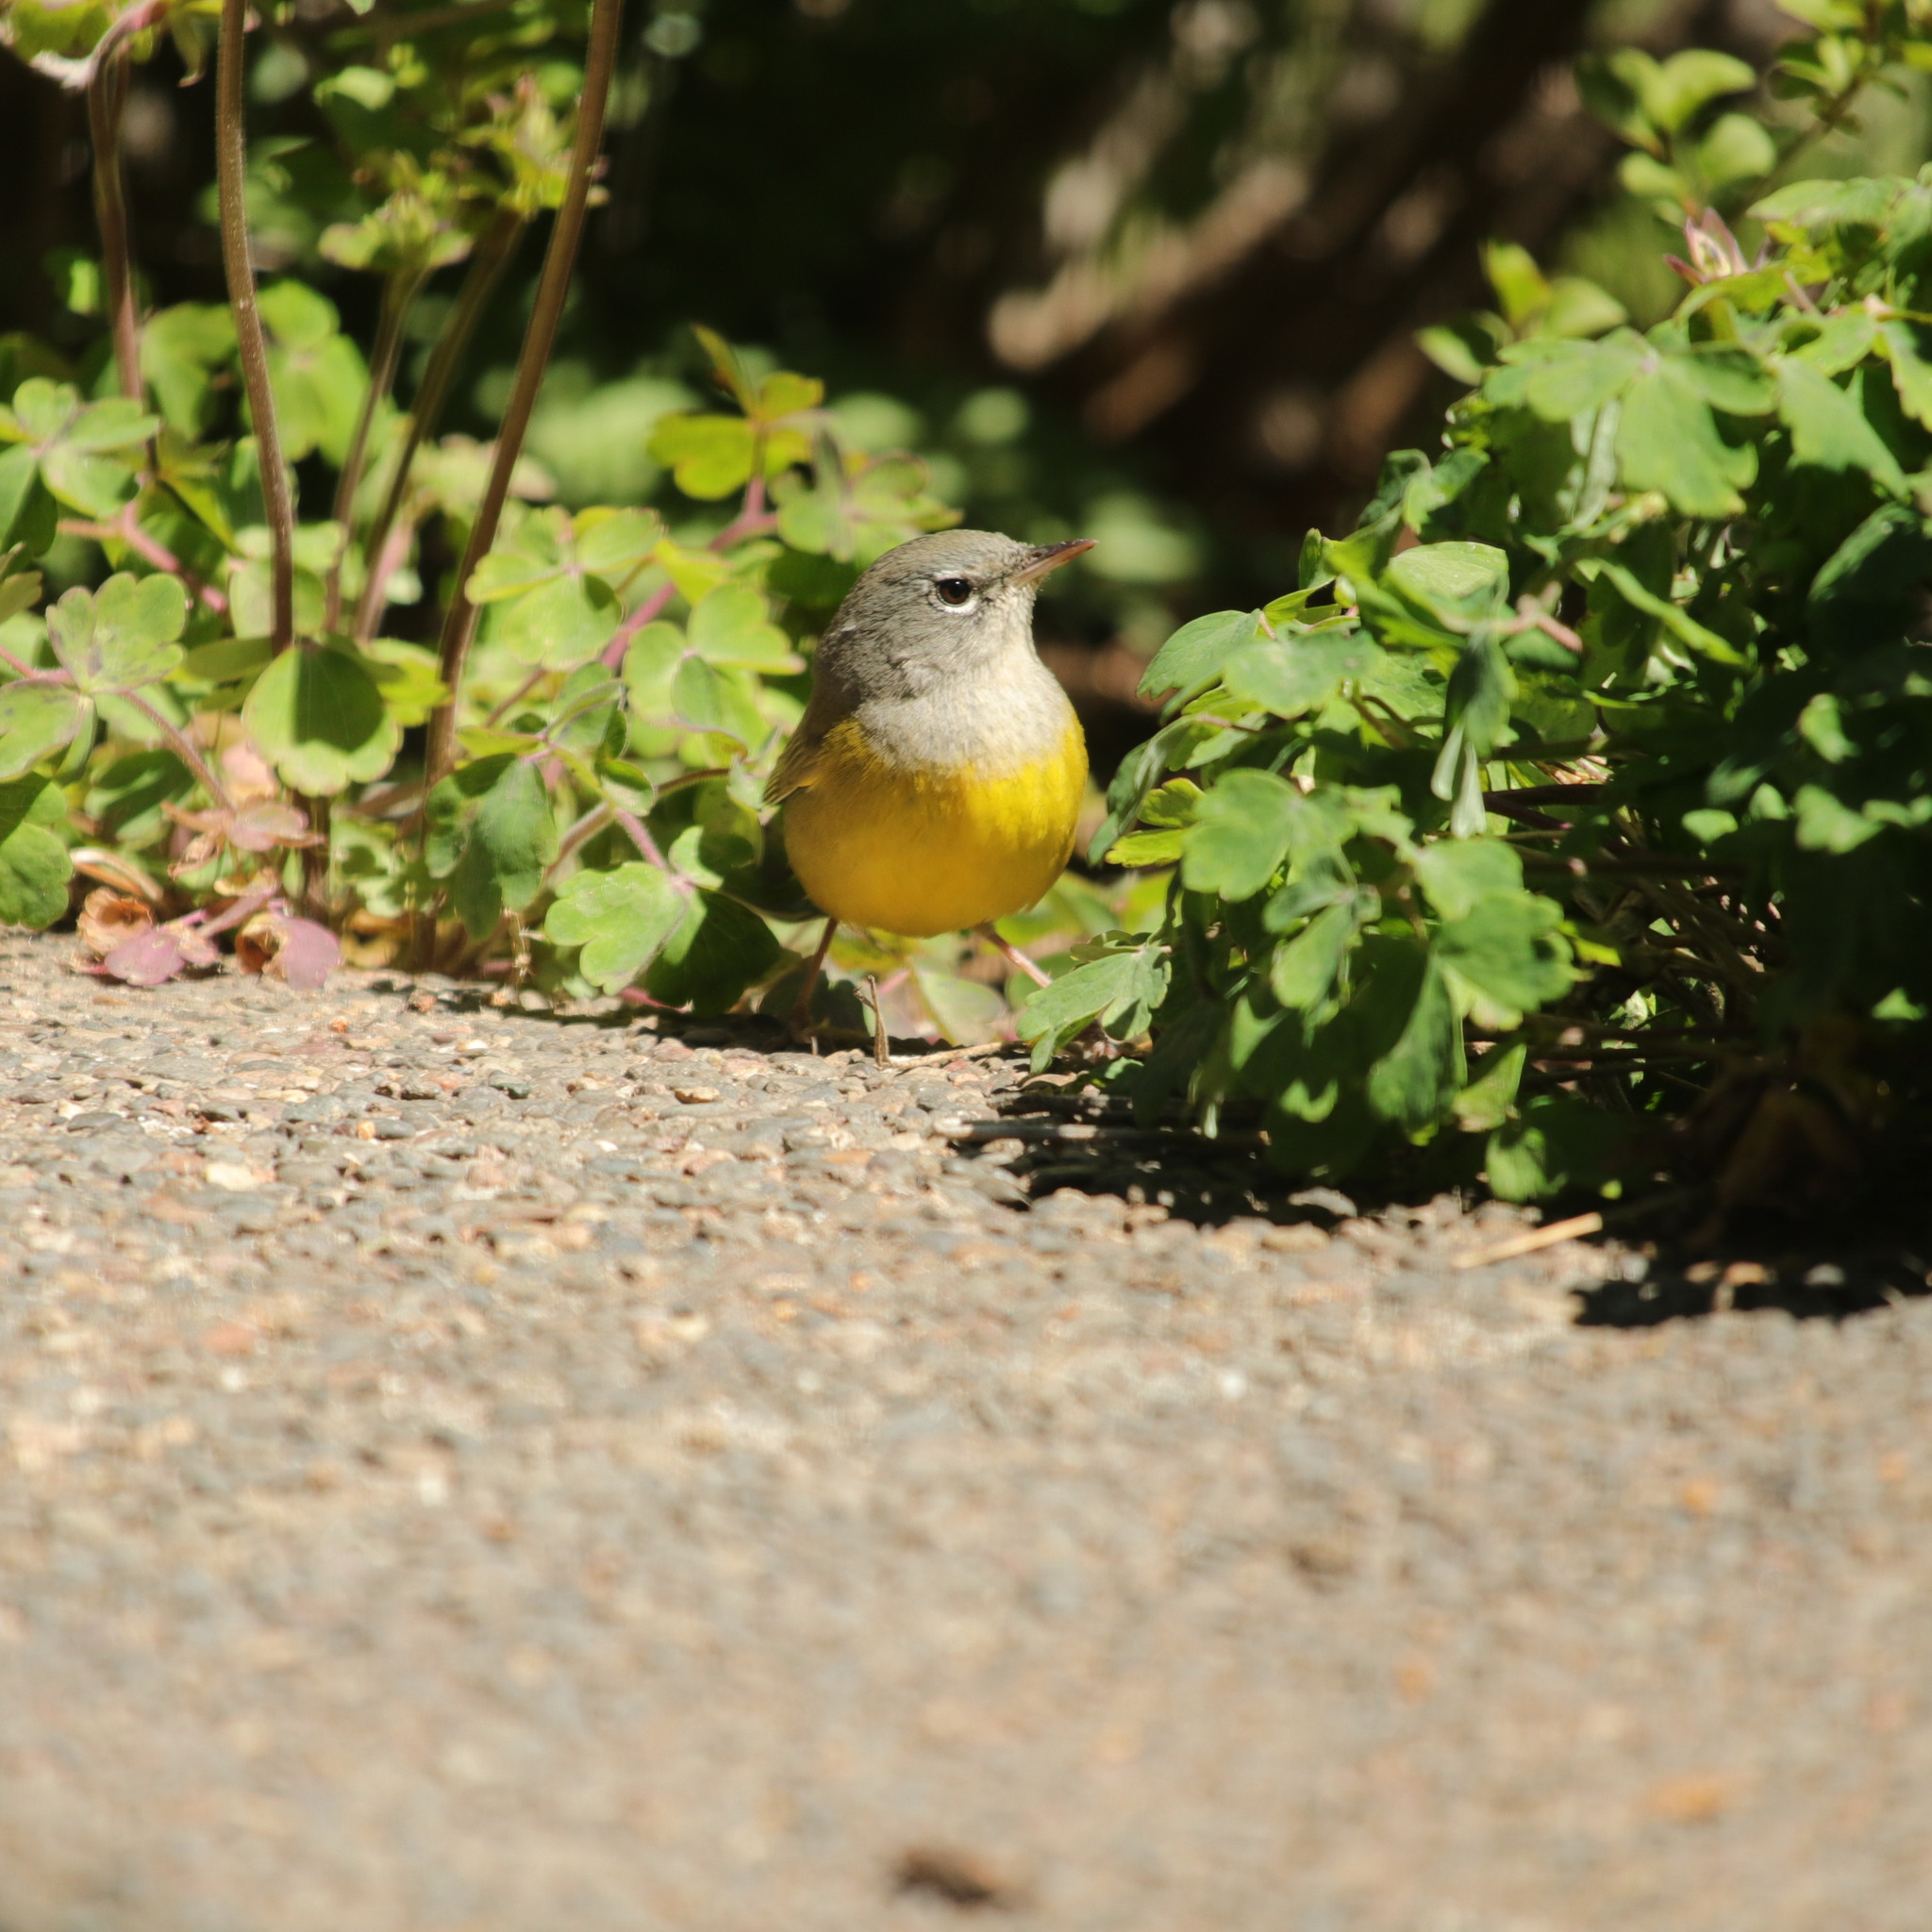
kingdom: Animalia
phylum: Chordata
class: Aves
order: Passeriformes
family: Parulidae
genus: Geothlypis
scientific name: Geothlypis tolmiei
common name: Macgillivray's warbler
